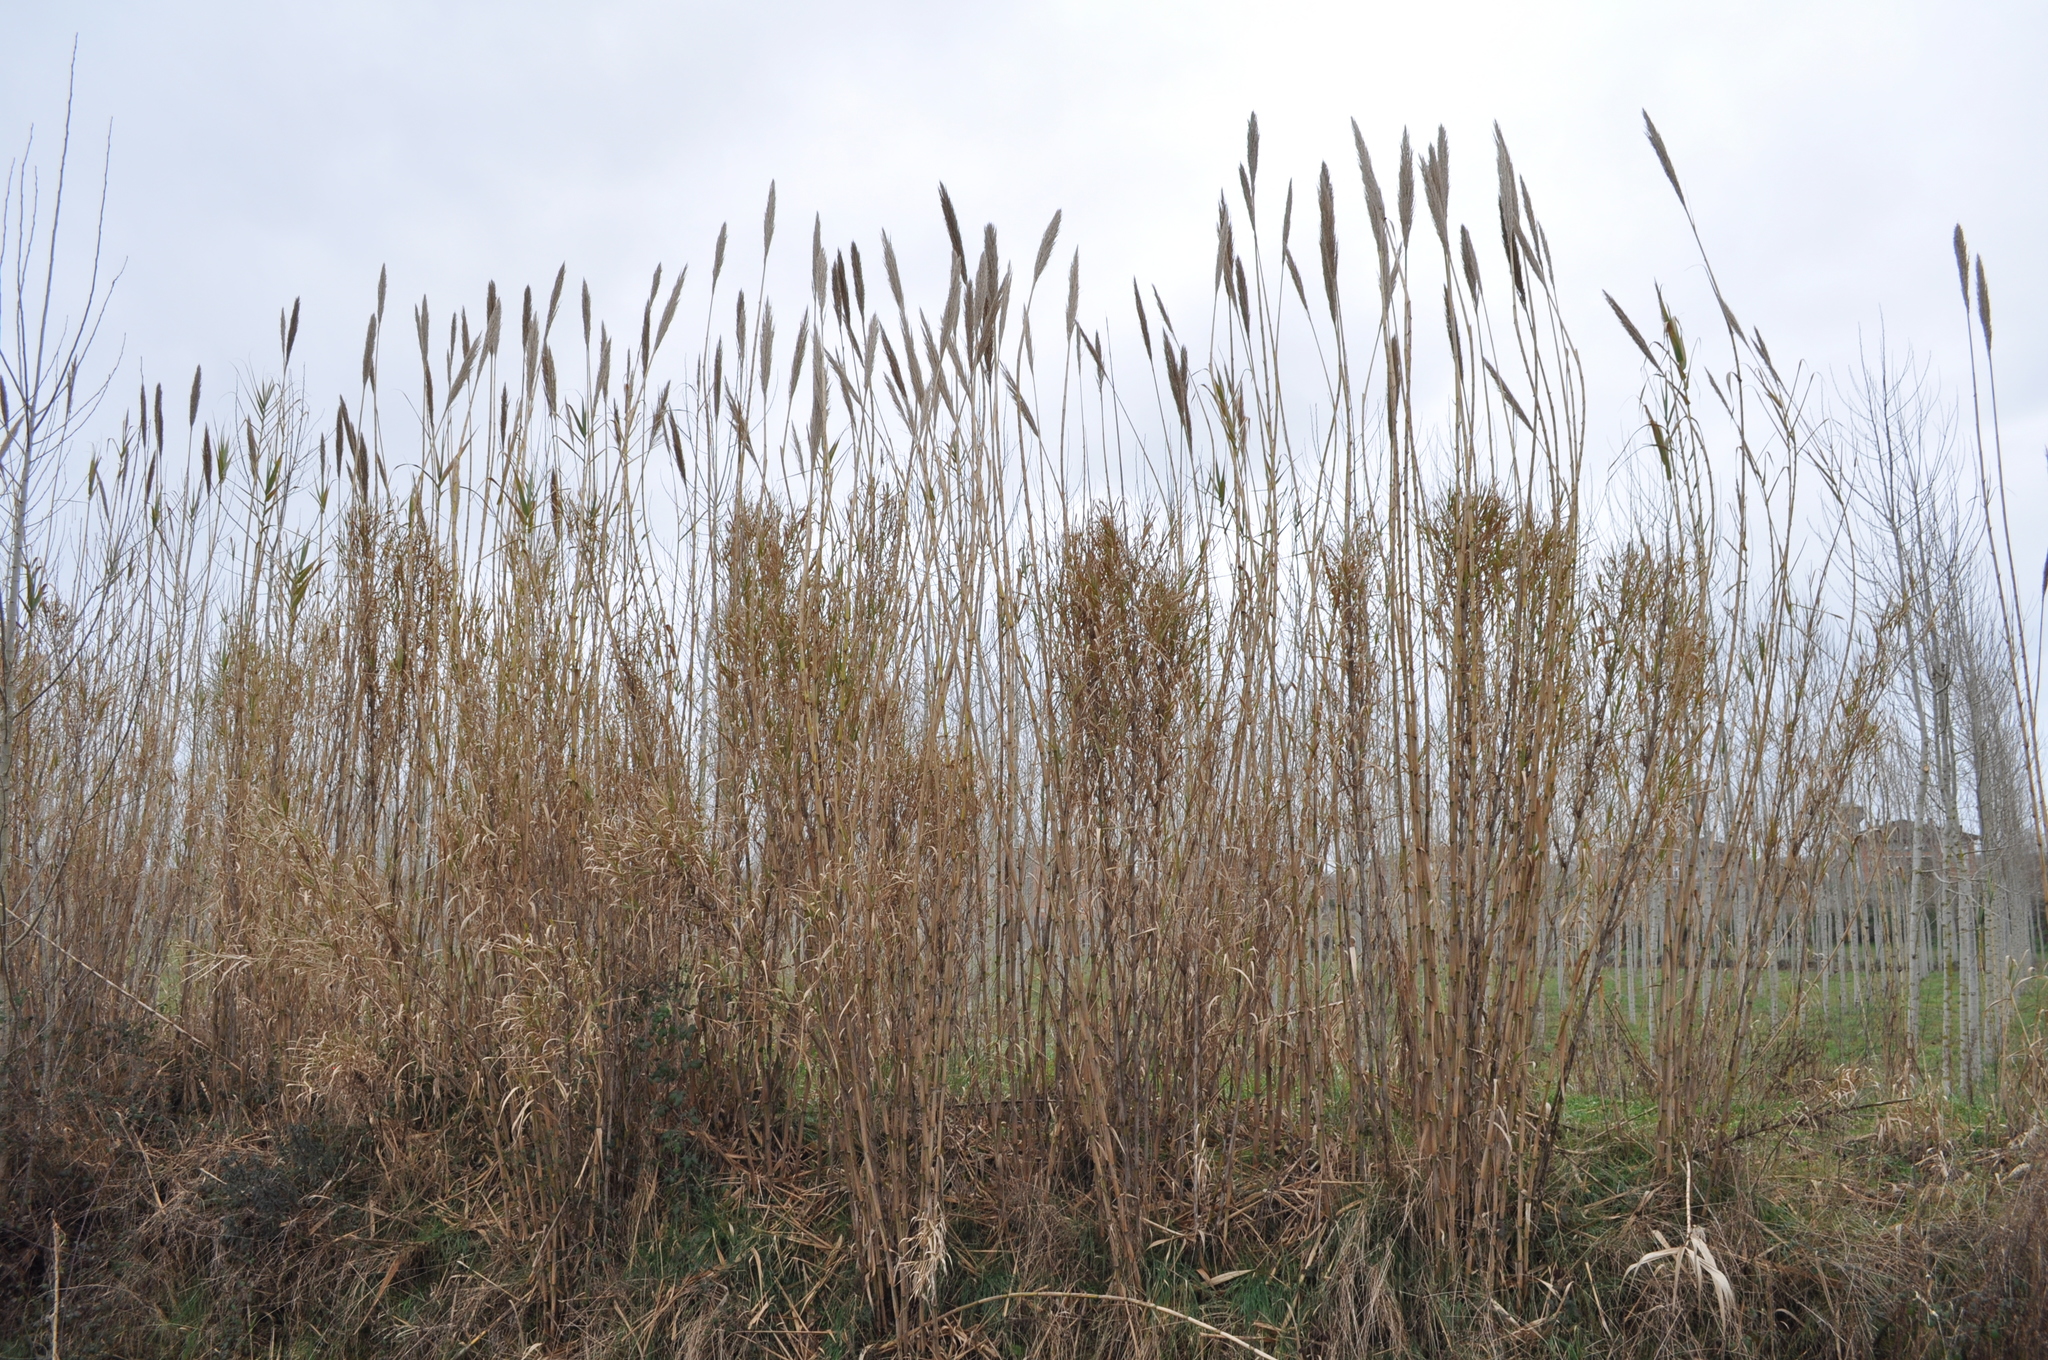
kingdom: Plantae
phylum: Tracheophyta
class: Liliopsida
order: Poales
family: Poaceae
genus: Arundo
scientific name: Arundo donax
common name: Giant reed
